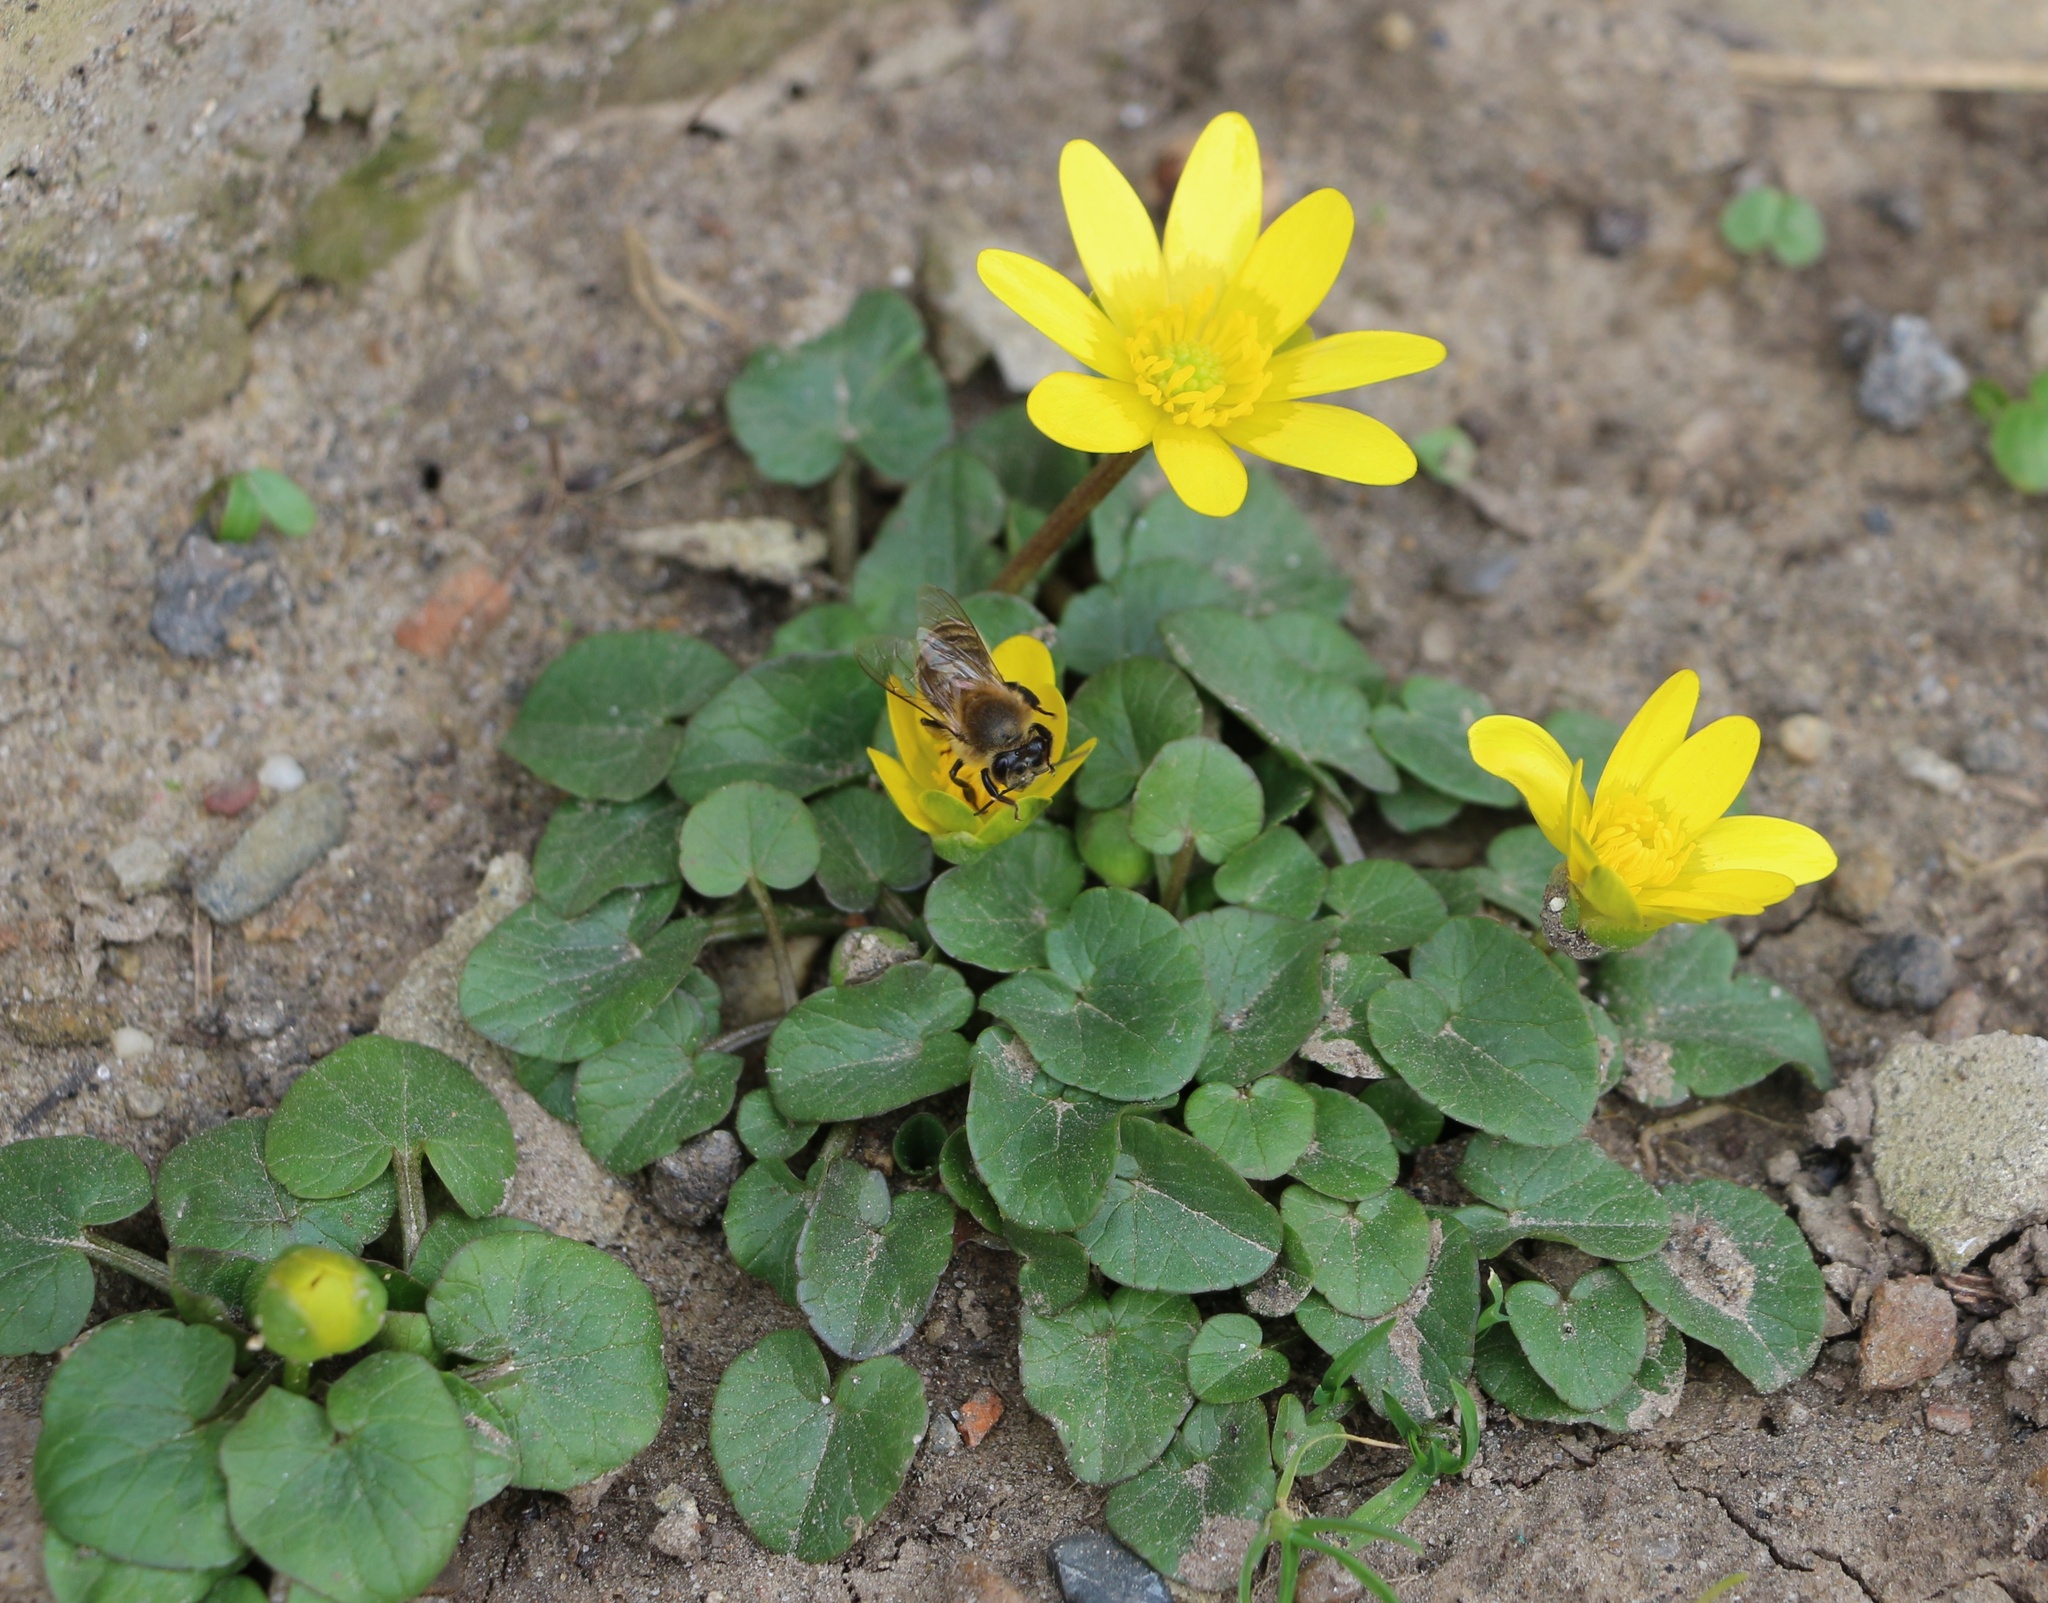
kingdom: Plantae
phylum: Tracheophyta
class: Magnoliopsida
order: Ranunculales
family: Ranunculaceae
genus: Ficaria
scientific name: Ficaria verna
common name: Lesser celandine
